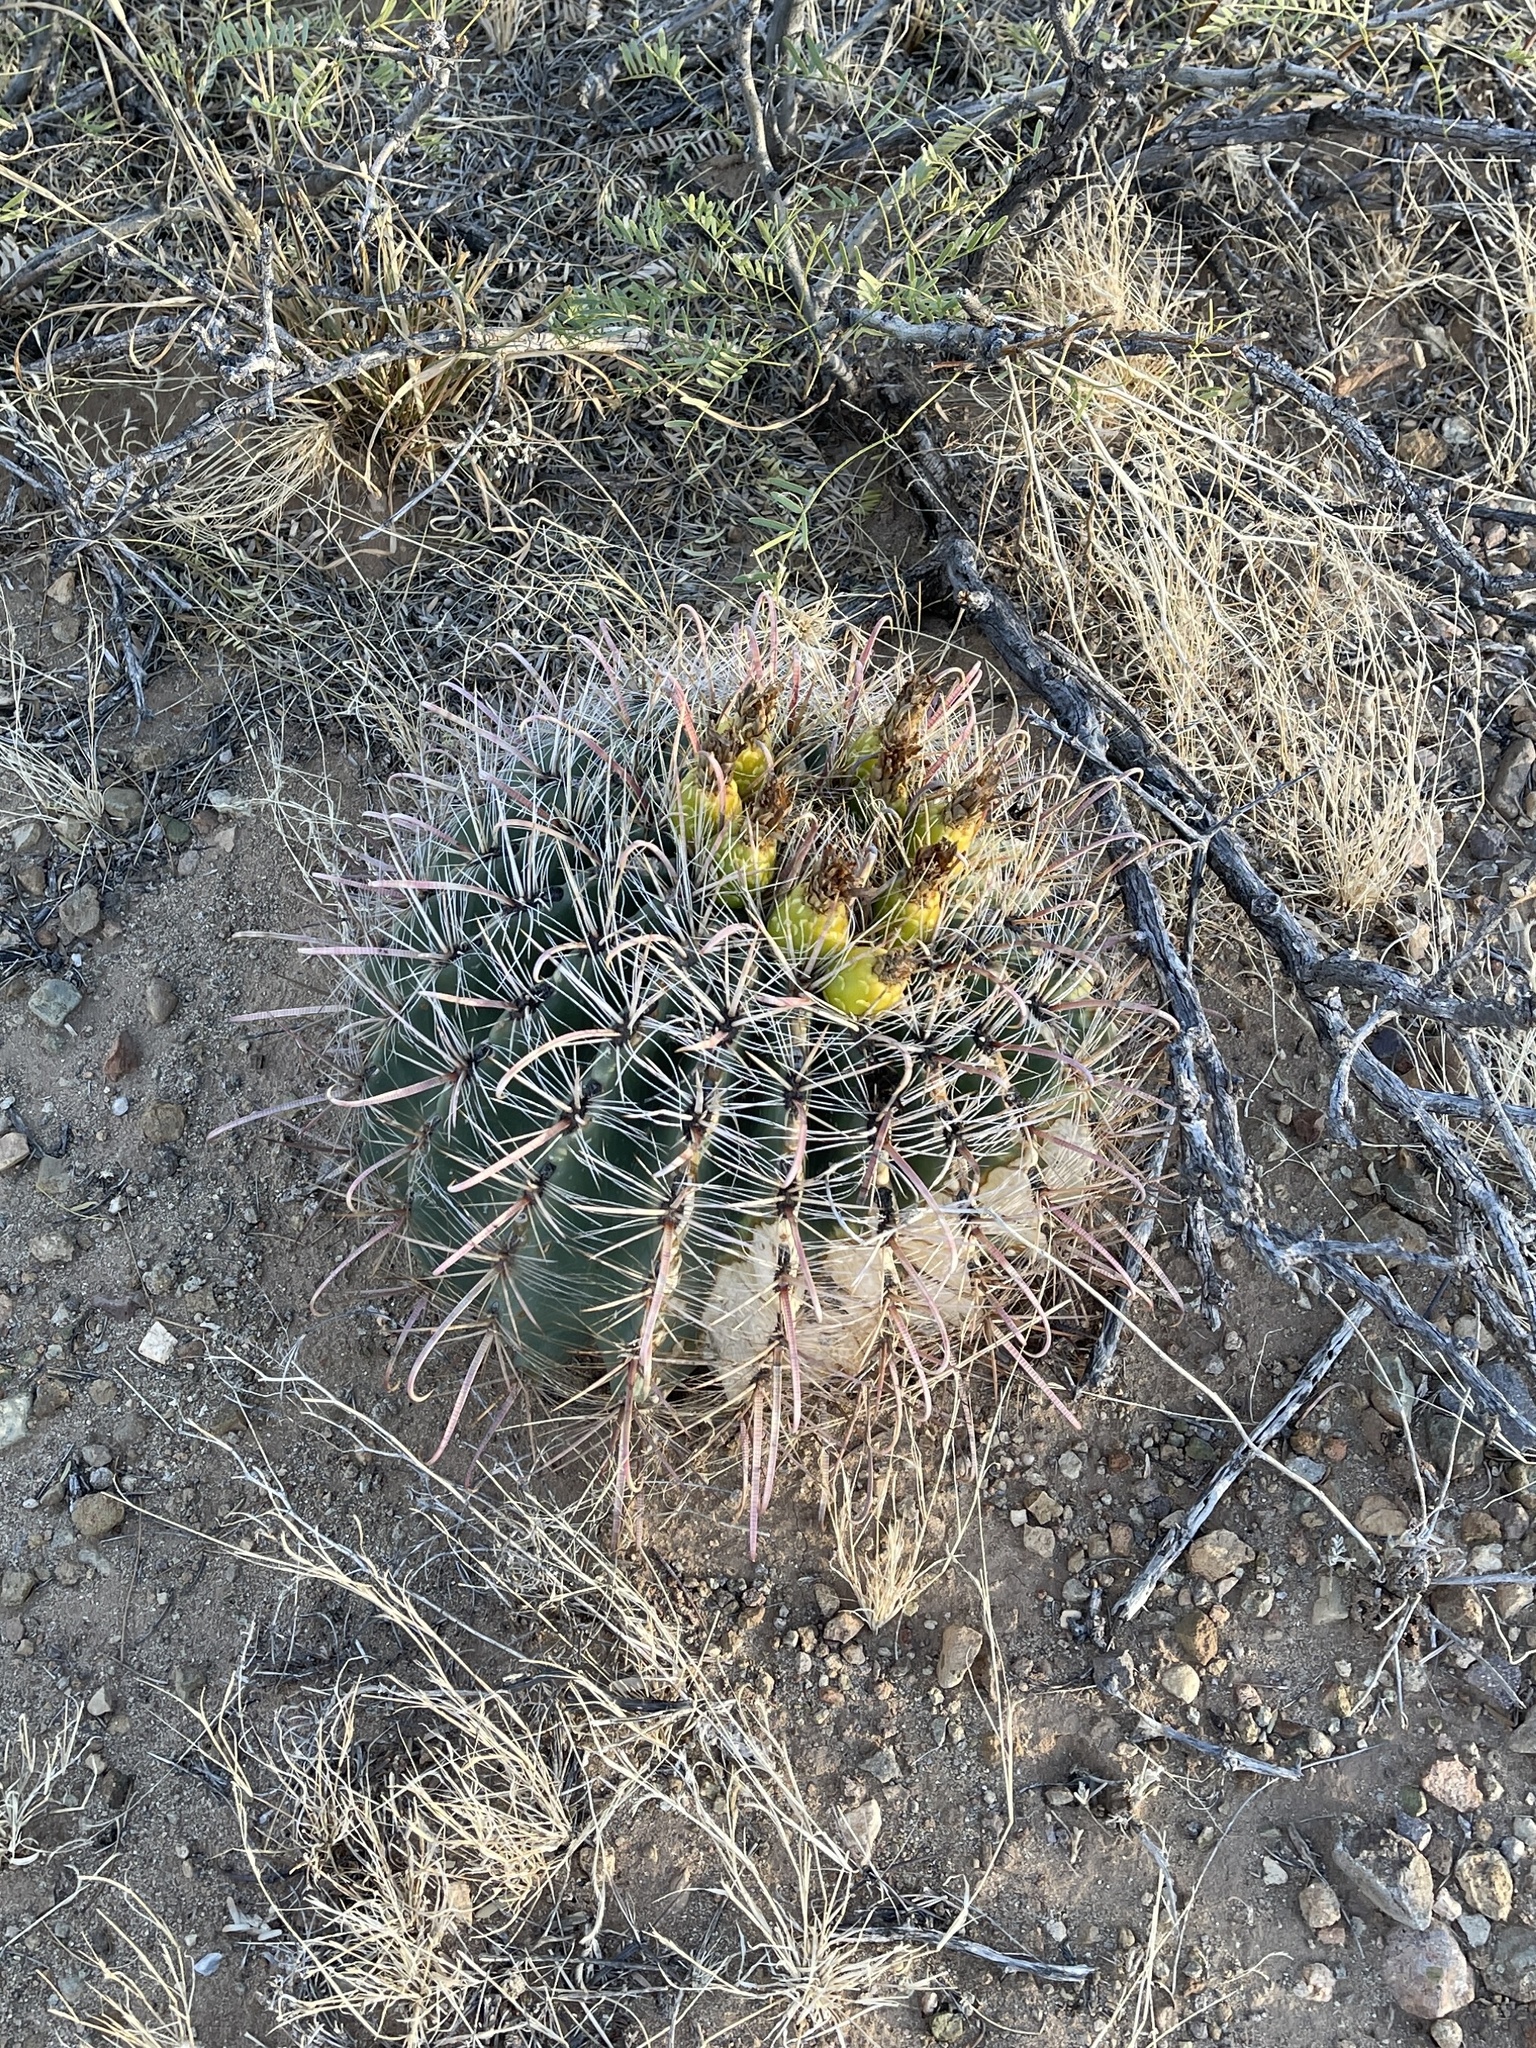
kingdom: Plantae
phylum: Tracheophyta
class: Magnoliopsida
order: Caryophyllales
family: Cactaceae
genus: Ferocactus
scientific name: Ferocactus wislizeni
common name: Candy barrel cactus
